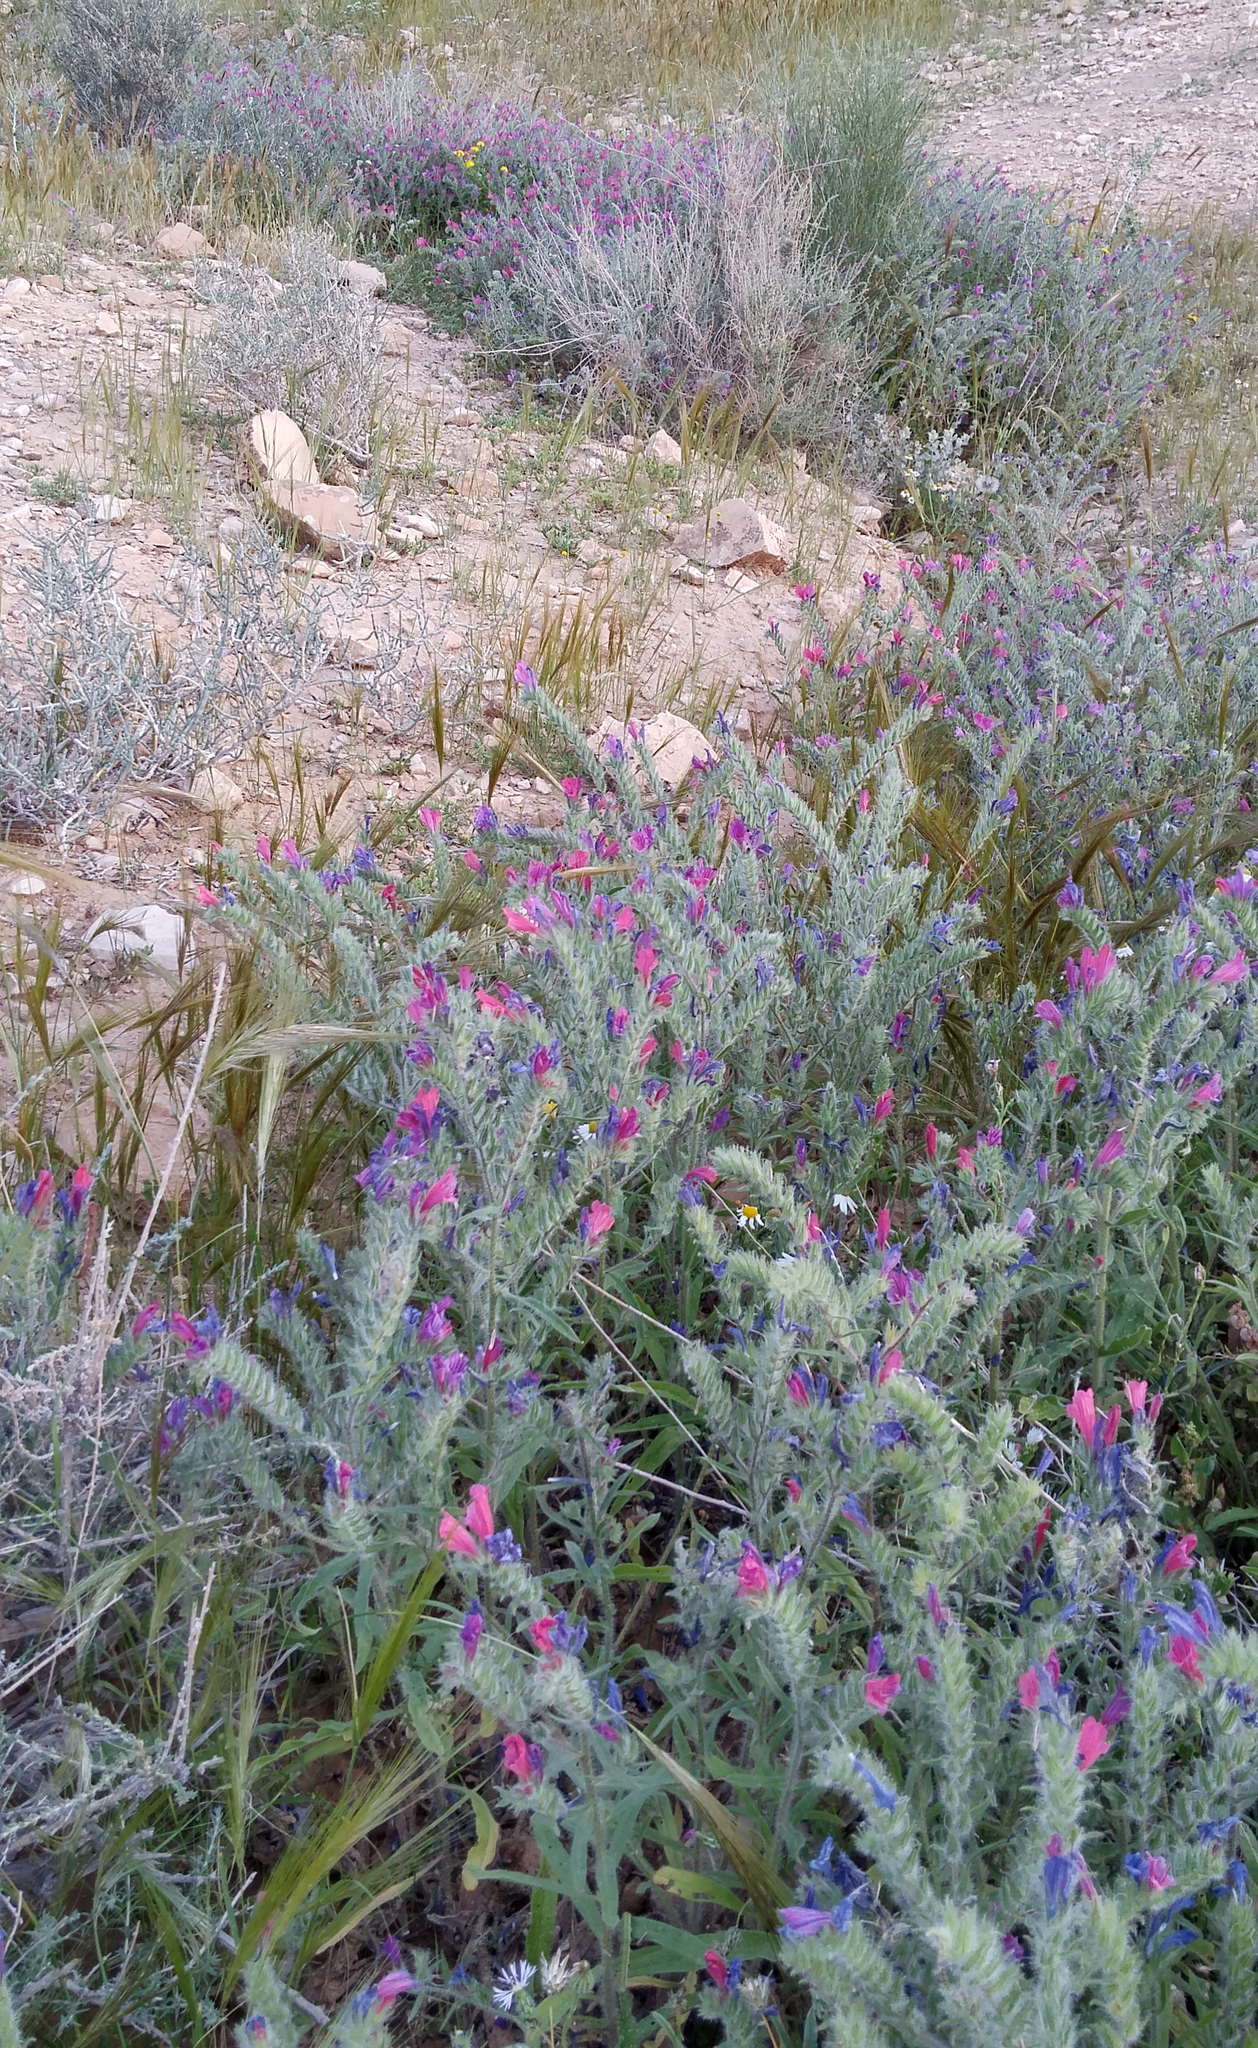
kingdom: Plantae
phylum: Tracheophyta
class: Magnoliopsida
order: Boraginales
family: Boraginaceae
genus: Echium
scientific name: Echium judaeum
